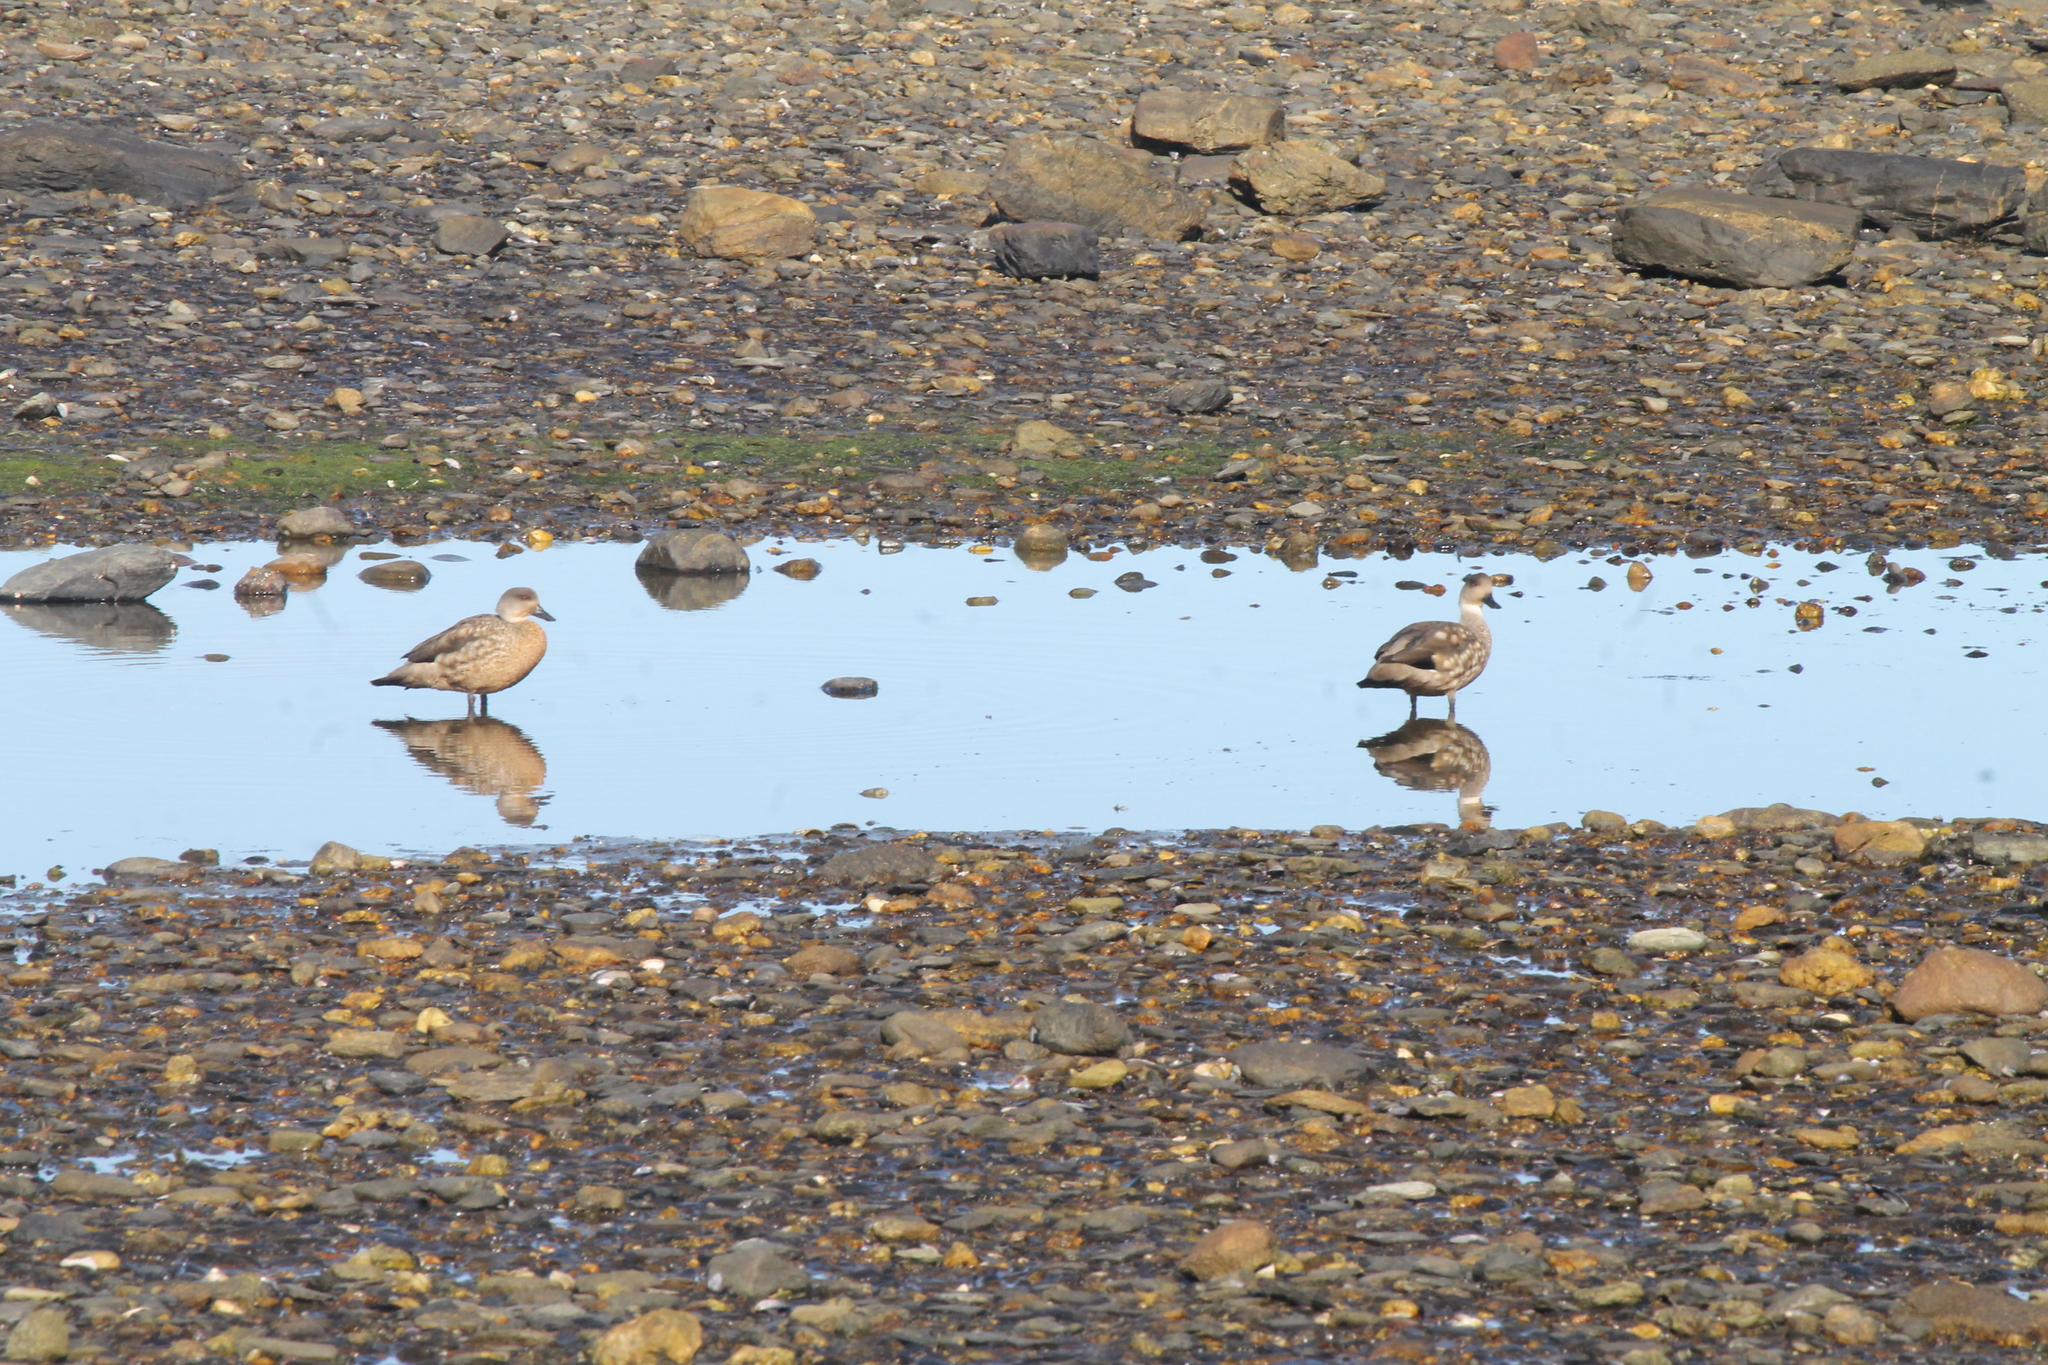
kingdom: Animalia
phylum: Chordata
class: Aves
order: Anseriformes
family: Anatidae
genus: Lophonetta
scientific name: Lophonetta specularioides
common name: Crested duck
